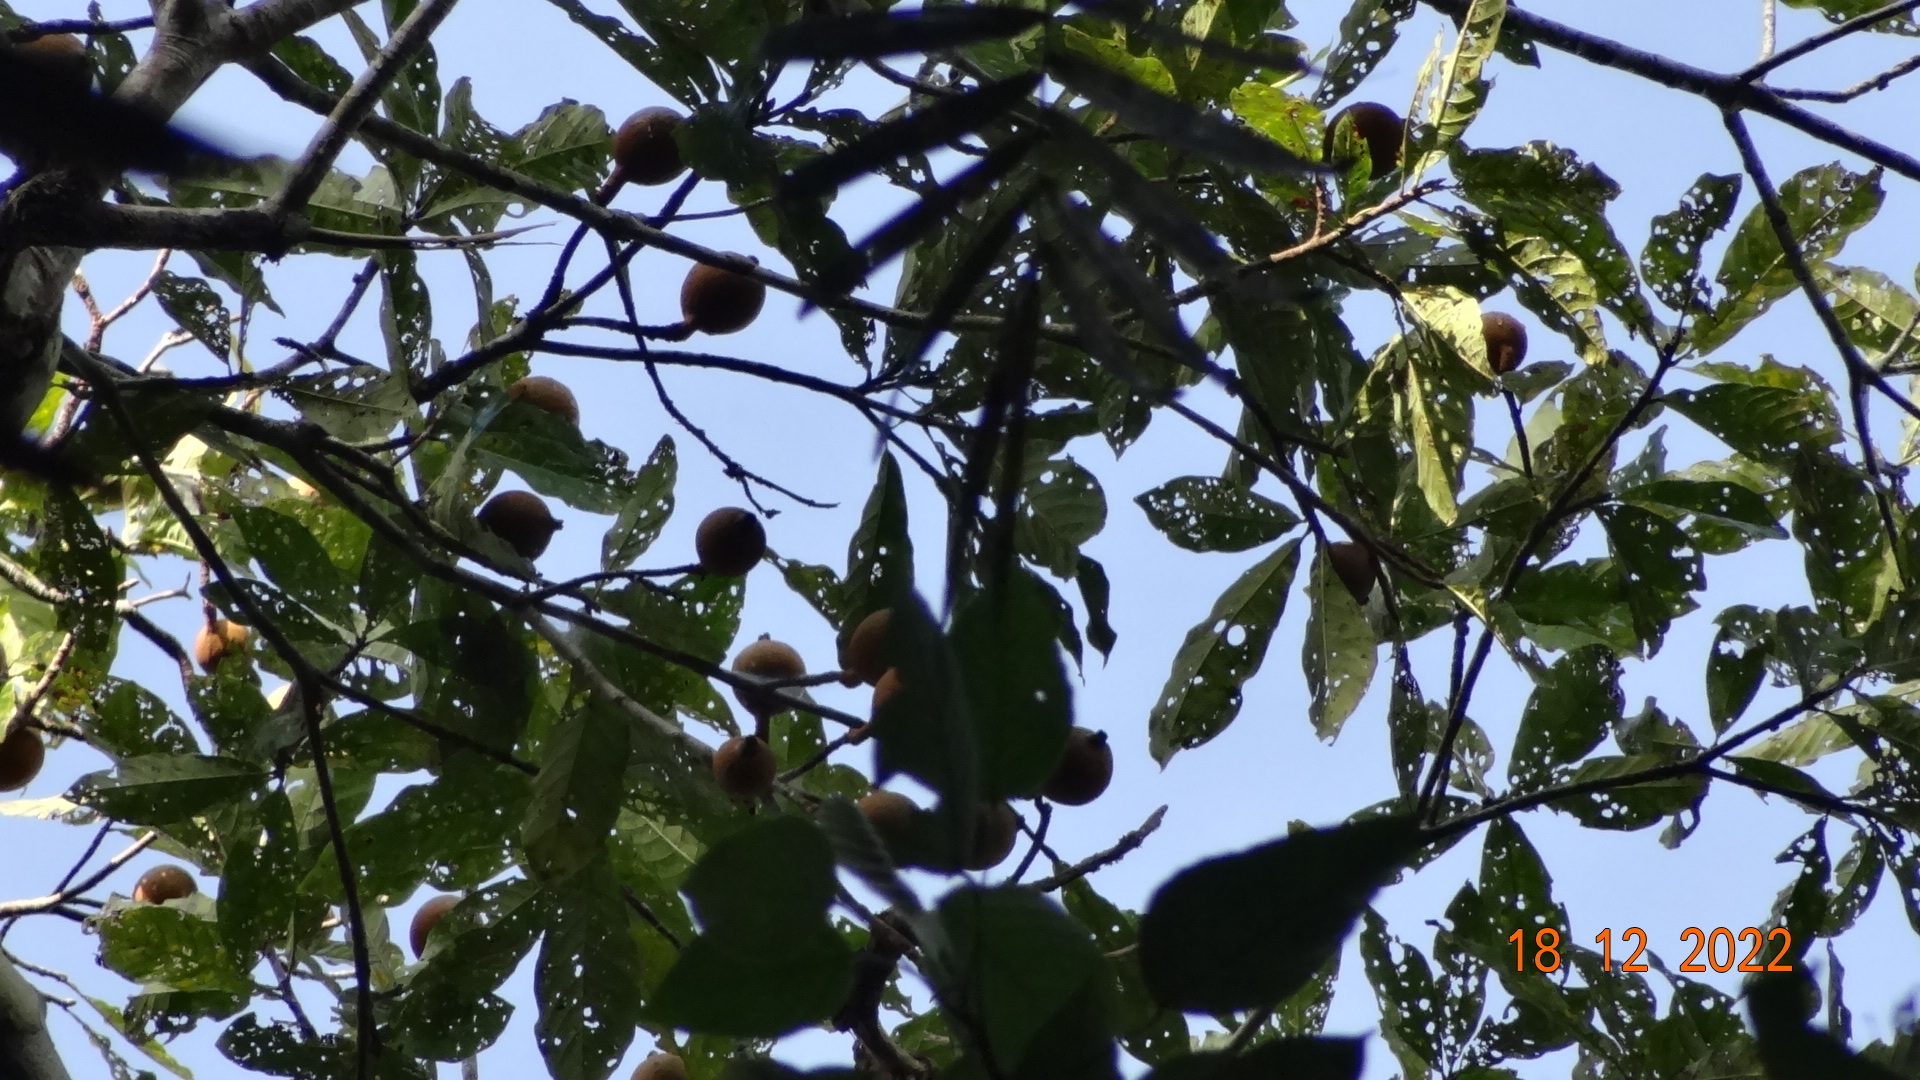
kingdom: Plantae
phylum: Tracheophyta
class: Magnoliopsida
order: Gentianales
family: Rubiaceae
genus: Genipa
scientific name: Genipa americana
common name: Genipap
